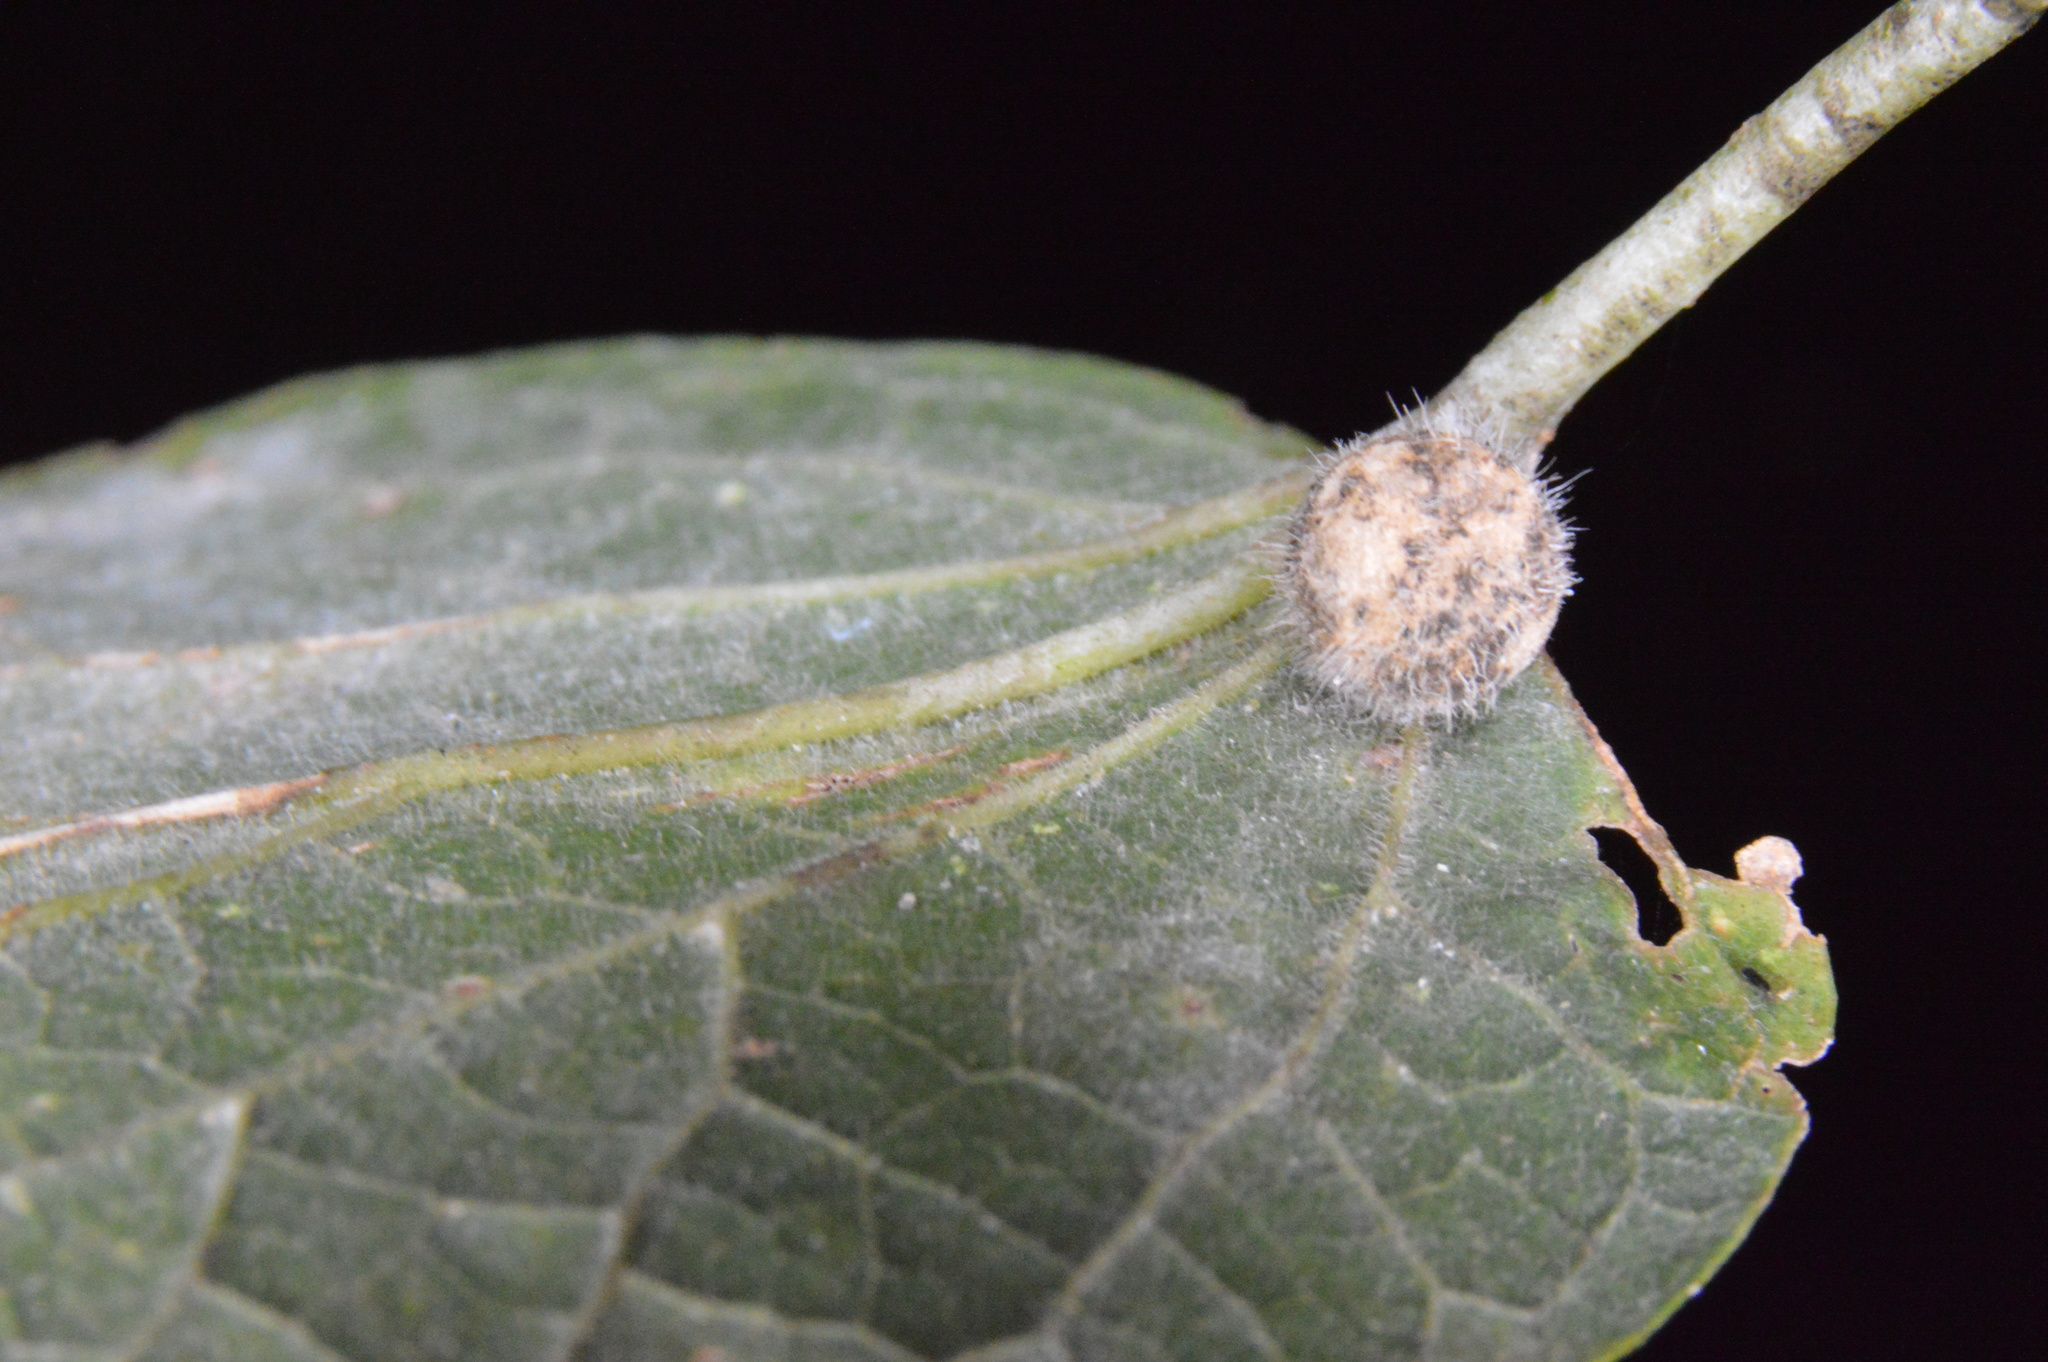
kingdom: Animalia
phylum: Arthropoda
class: Insecta
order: Diptera
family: Cecidomyiidae
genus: Celticecis
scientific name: Celticecis pubescens
